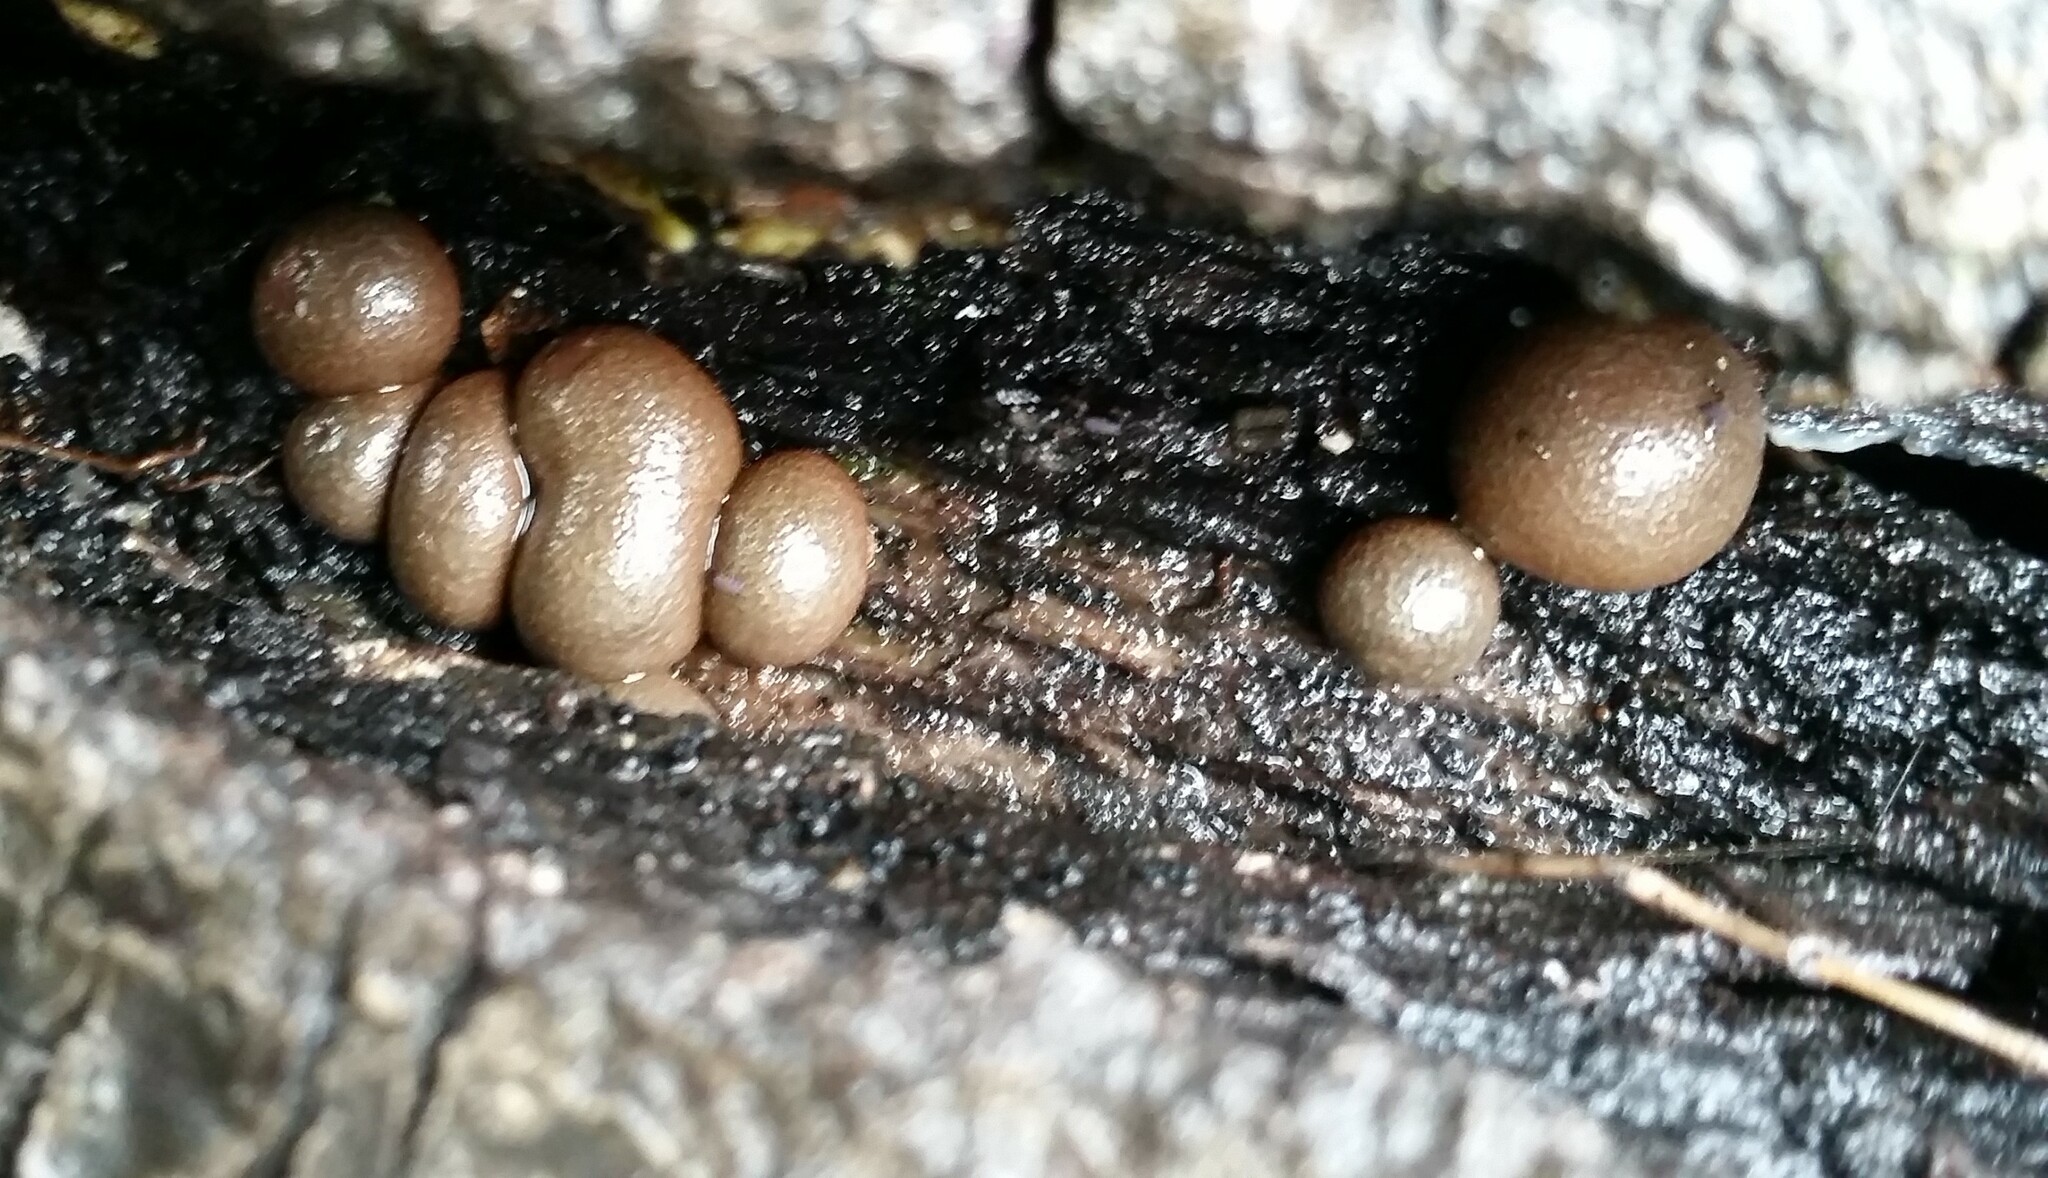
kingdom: Protozoa
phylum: Mycetozoa
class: Myxomycetes
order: Cribrariales
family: Tubiferaceae
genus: Lycogala
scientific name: Lycogala epidendrum
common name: Wolf's milk
